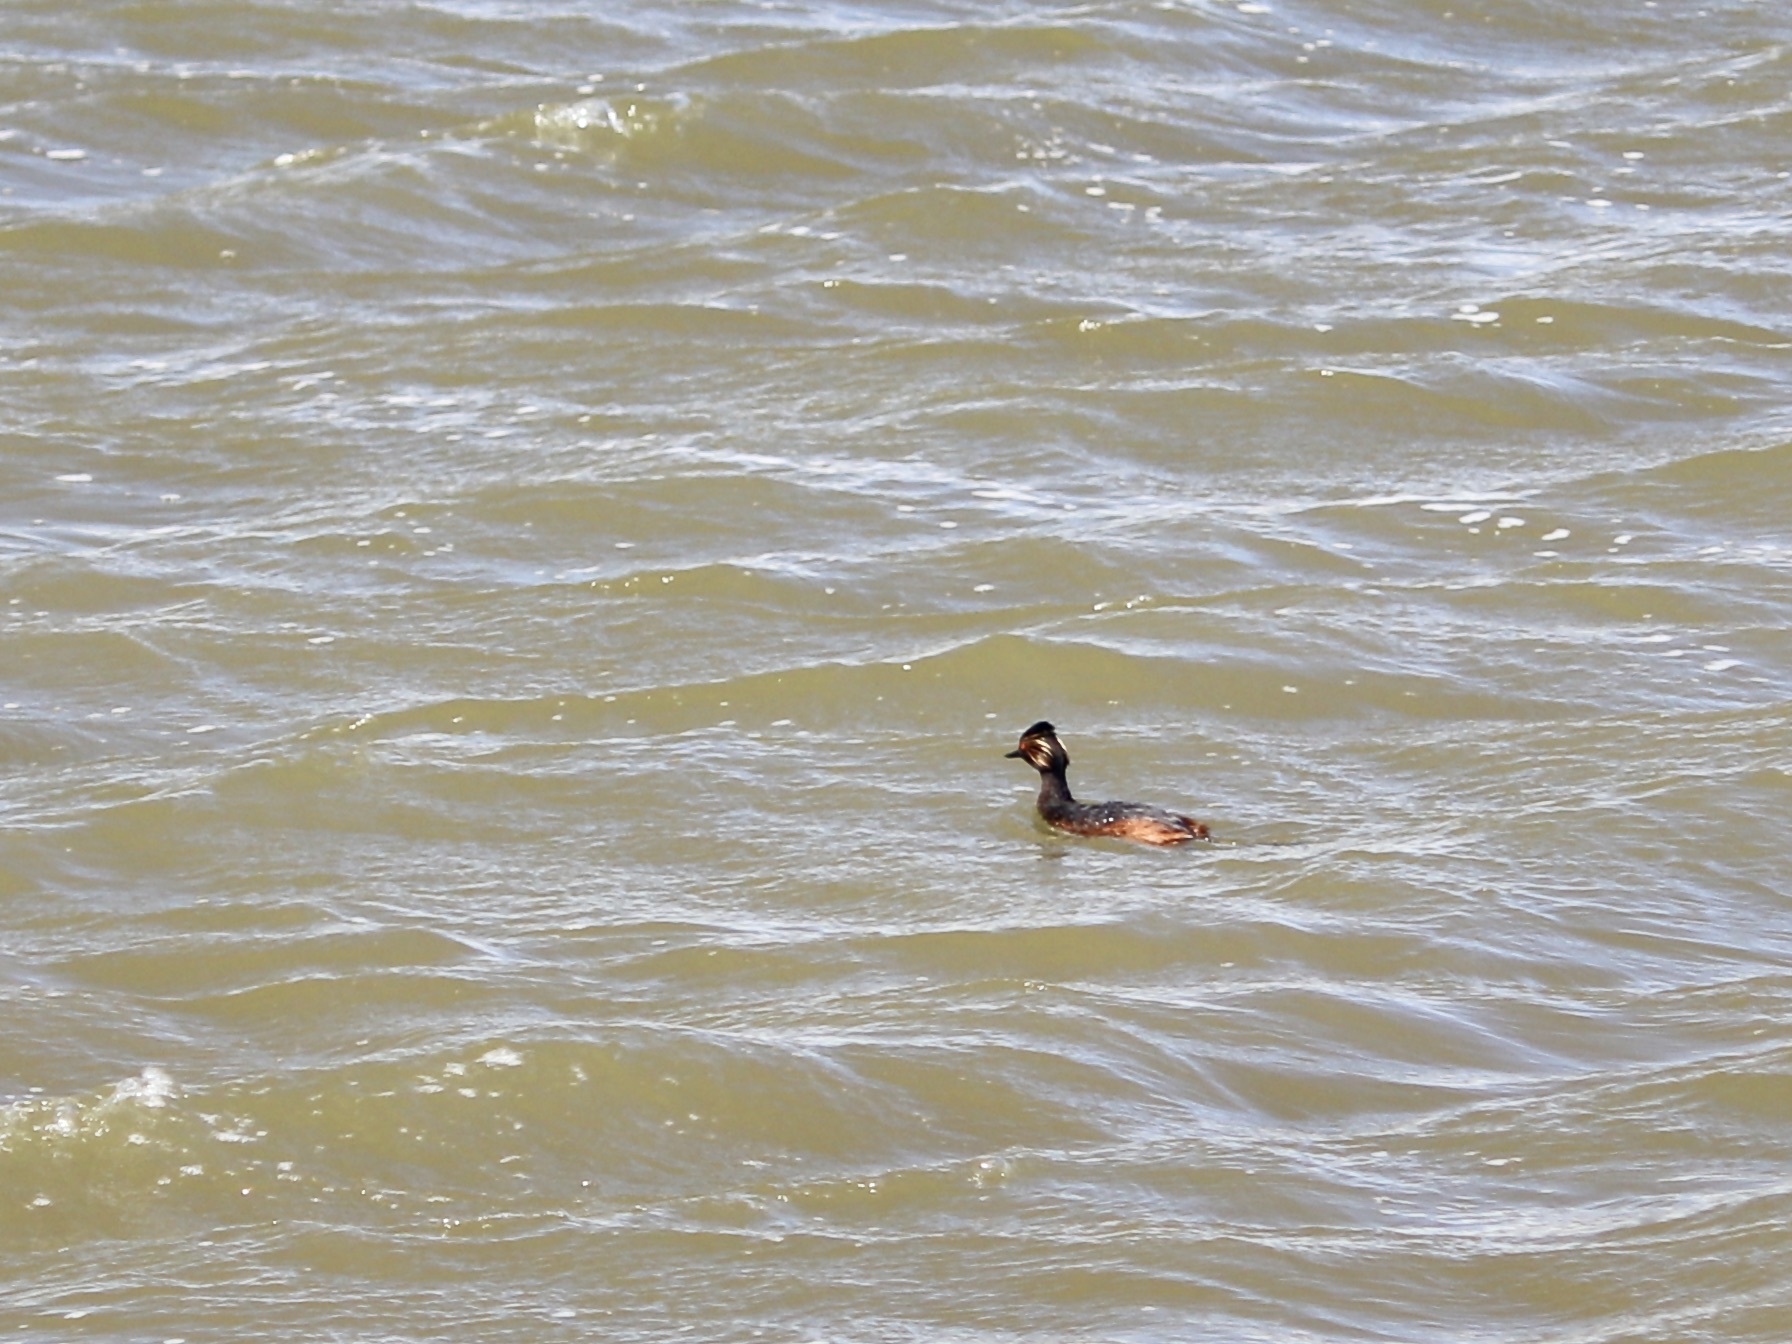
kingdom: Animalia
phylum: Chordata
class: Aves
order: Podicipediformes
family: Podicipedidae
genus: Podiceps
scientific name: Podiceps nigricollis
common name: Black-necked grebe
